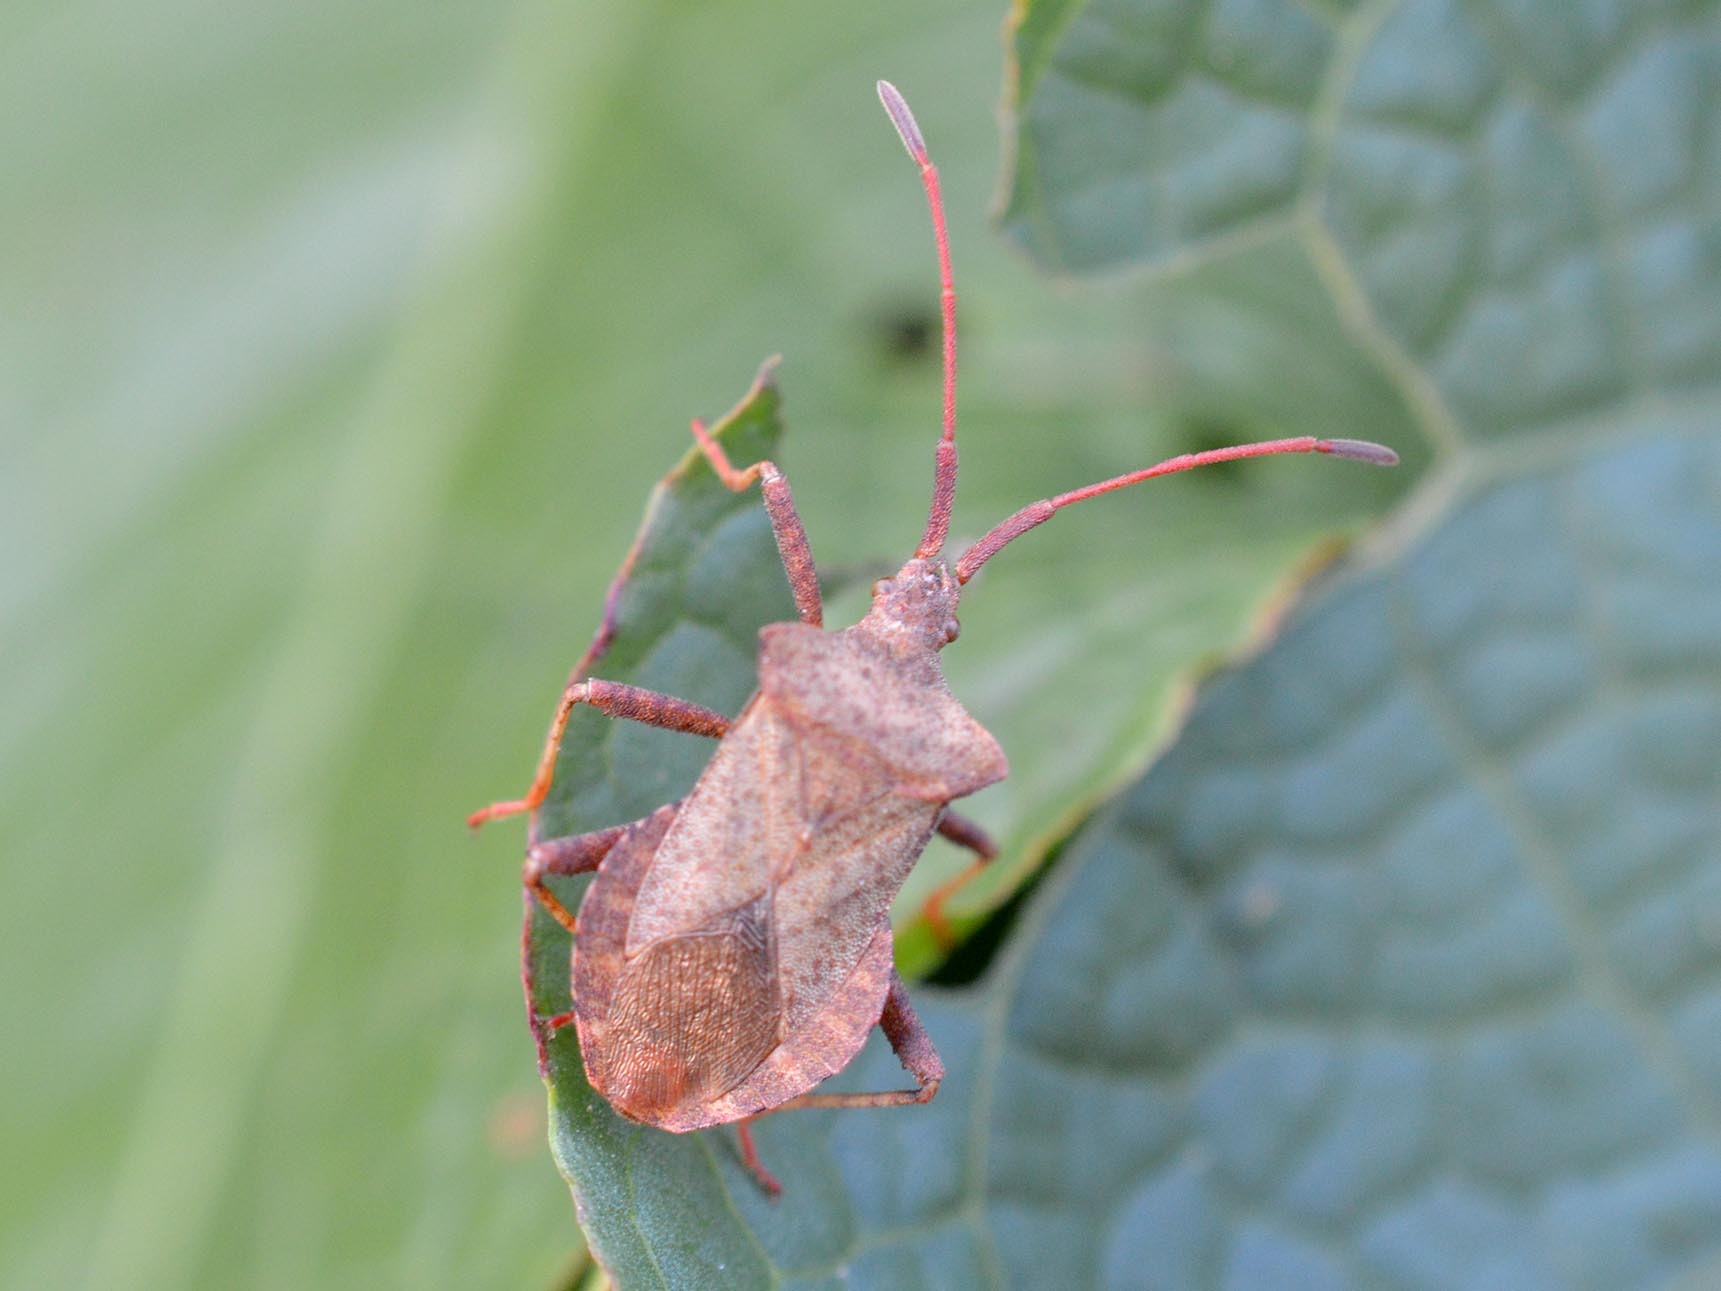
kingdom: Animalia
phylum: Arthropoda
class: Insecta
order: Hemiptera
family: Coreidae
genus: Coreus
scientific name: Coreus marginatus
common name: Dock bug
